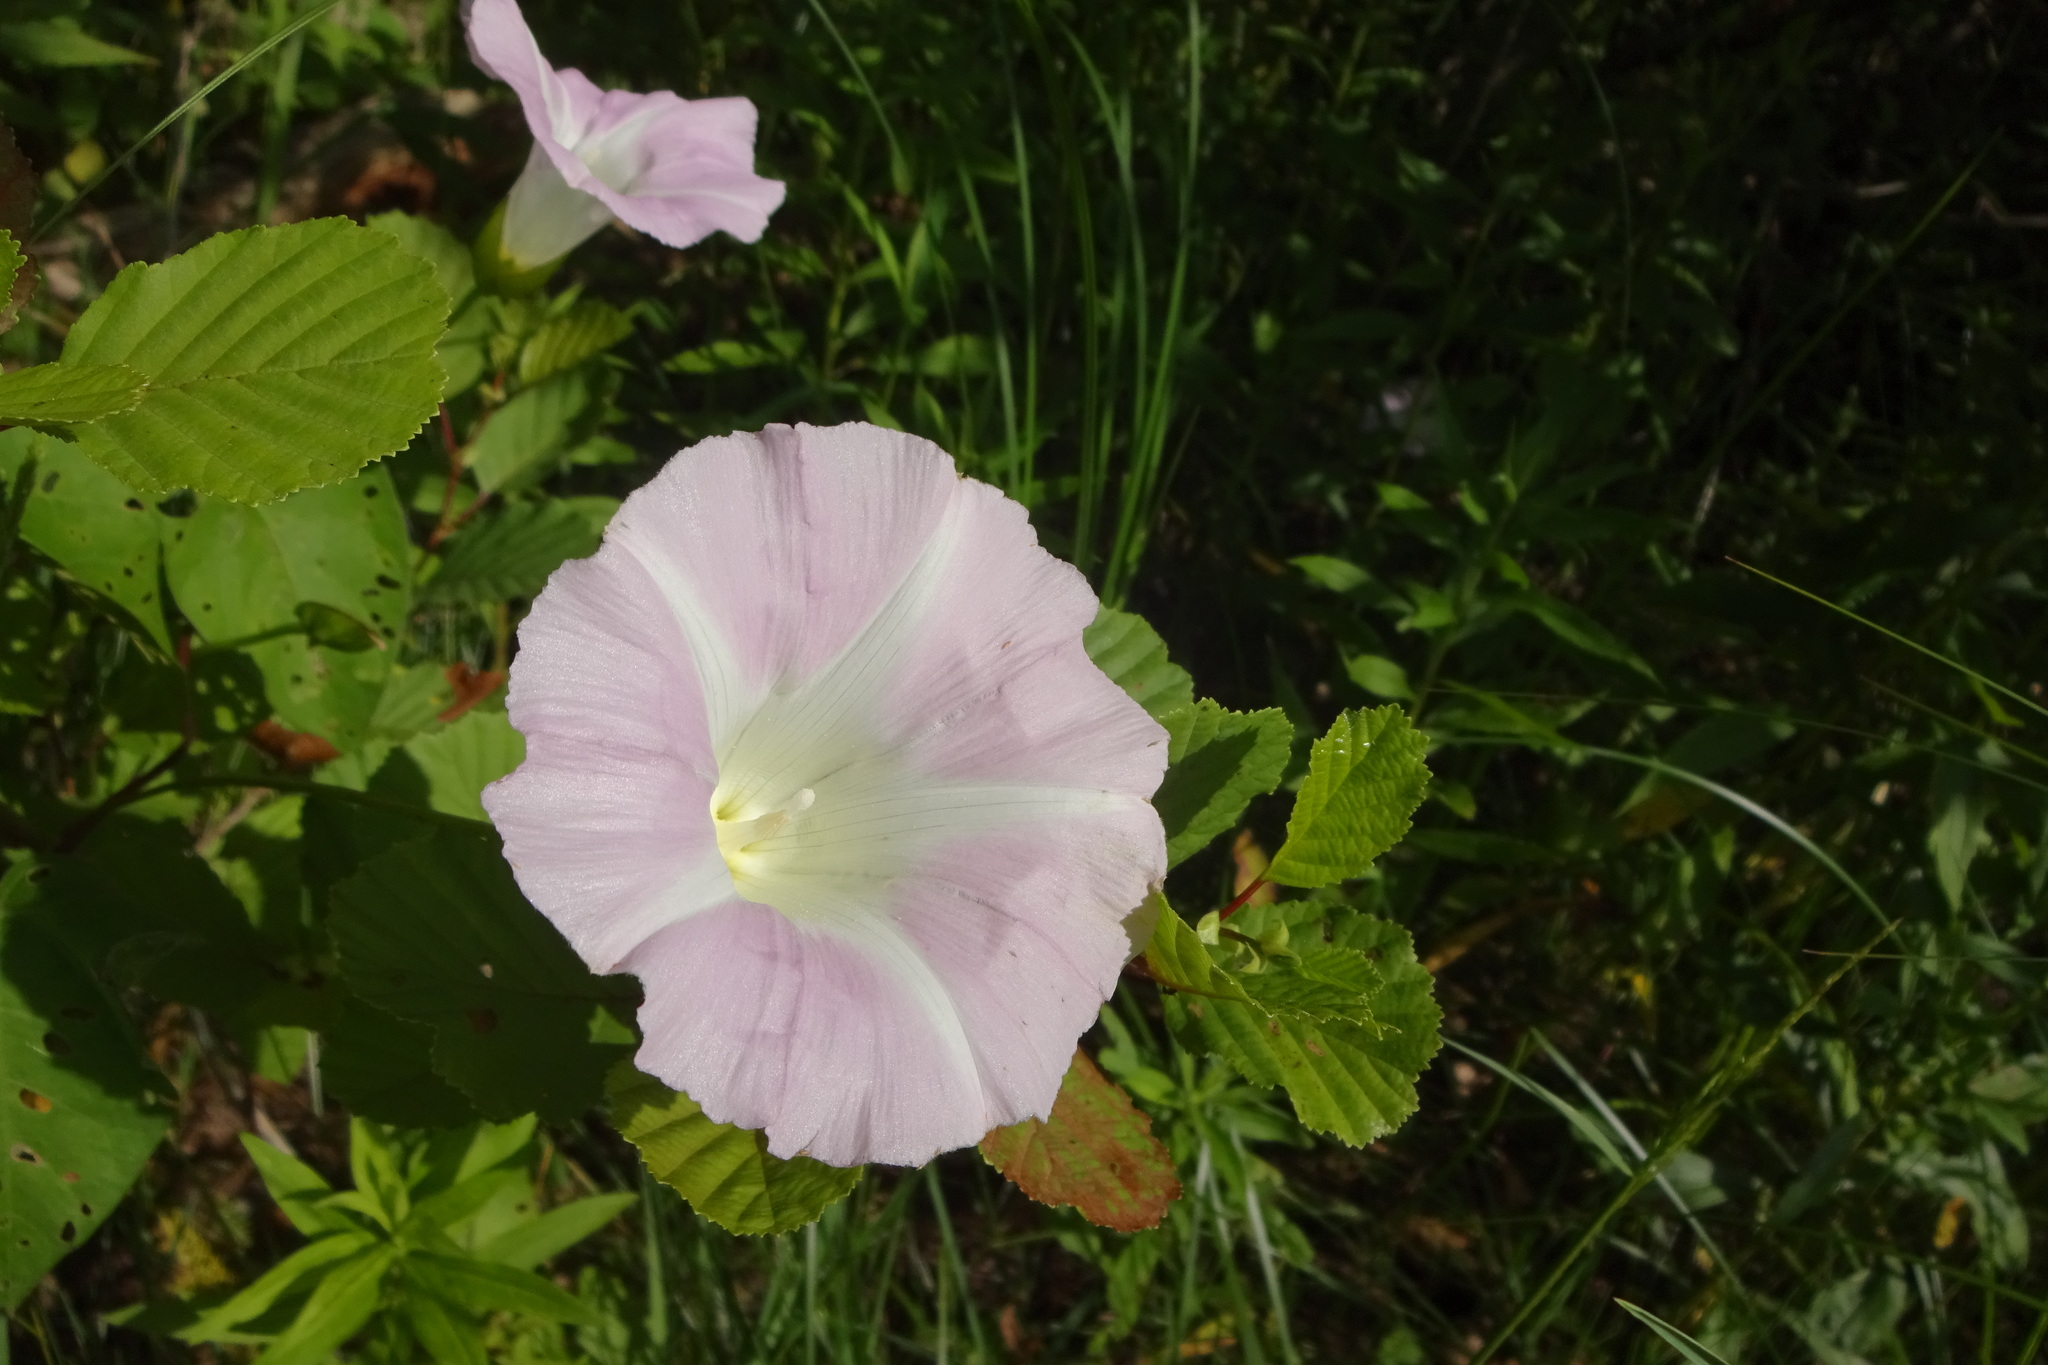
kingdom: Plantae
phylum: Tracheophyta
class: Magnoliopsida
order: Solanales
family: Convolvulaceae
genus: Calystegia
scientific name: Calystegia sepium
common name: Hedge bindweed
